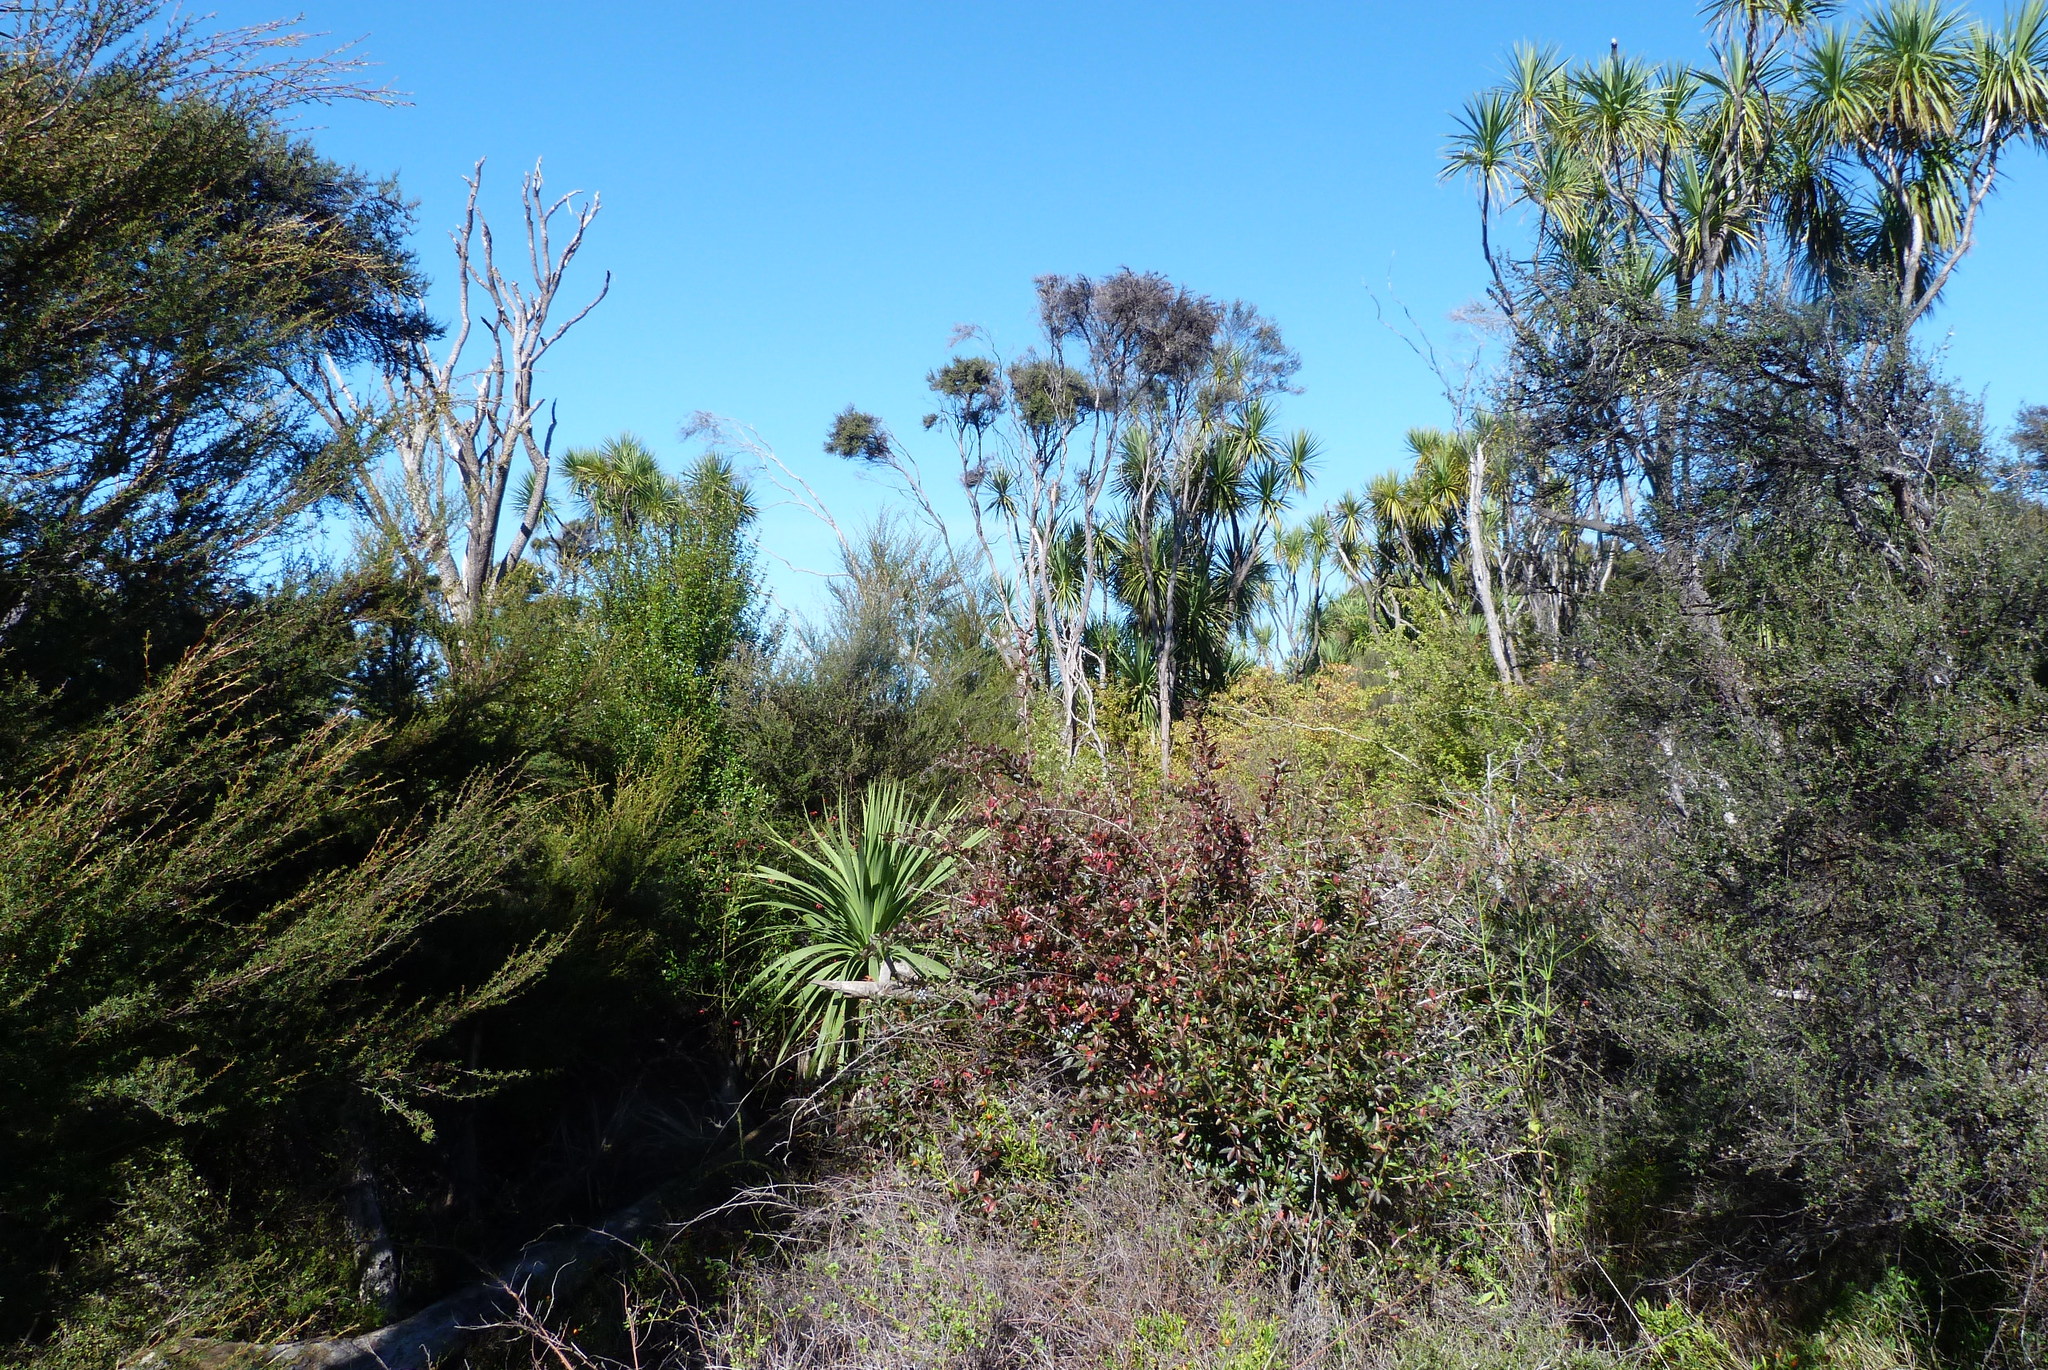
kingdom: Plantae
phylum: Tracheophyta
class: Liliopsida
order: Asparagales
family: Asparagaceae
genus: Cordyline
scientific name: Cordyline australis
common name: Cabbage-palm
